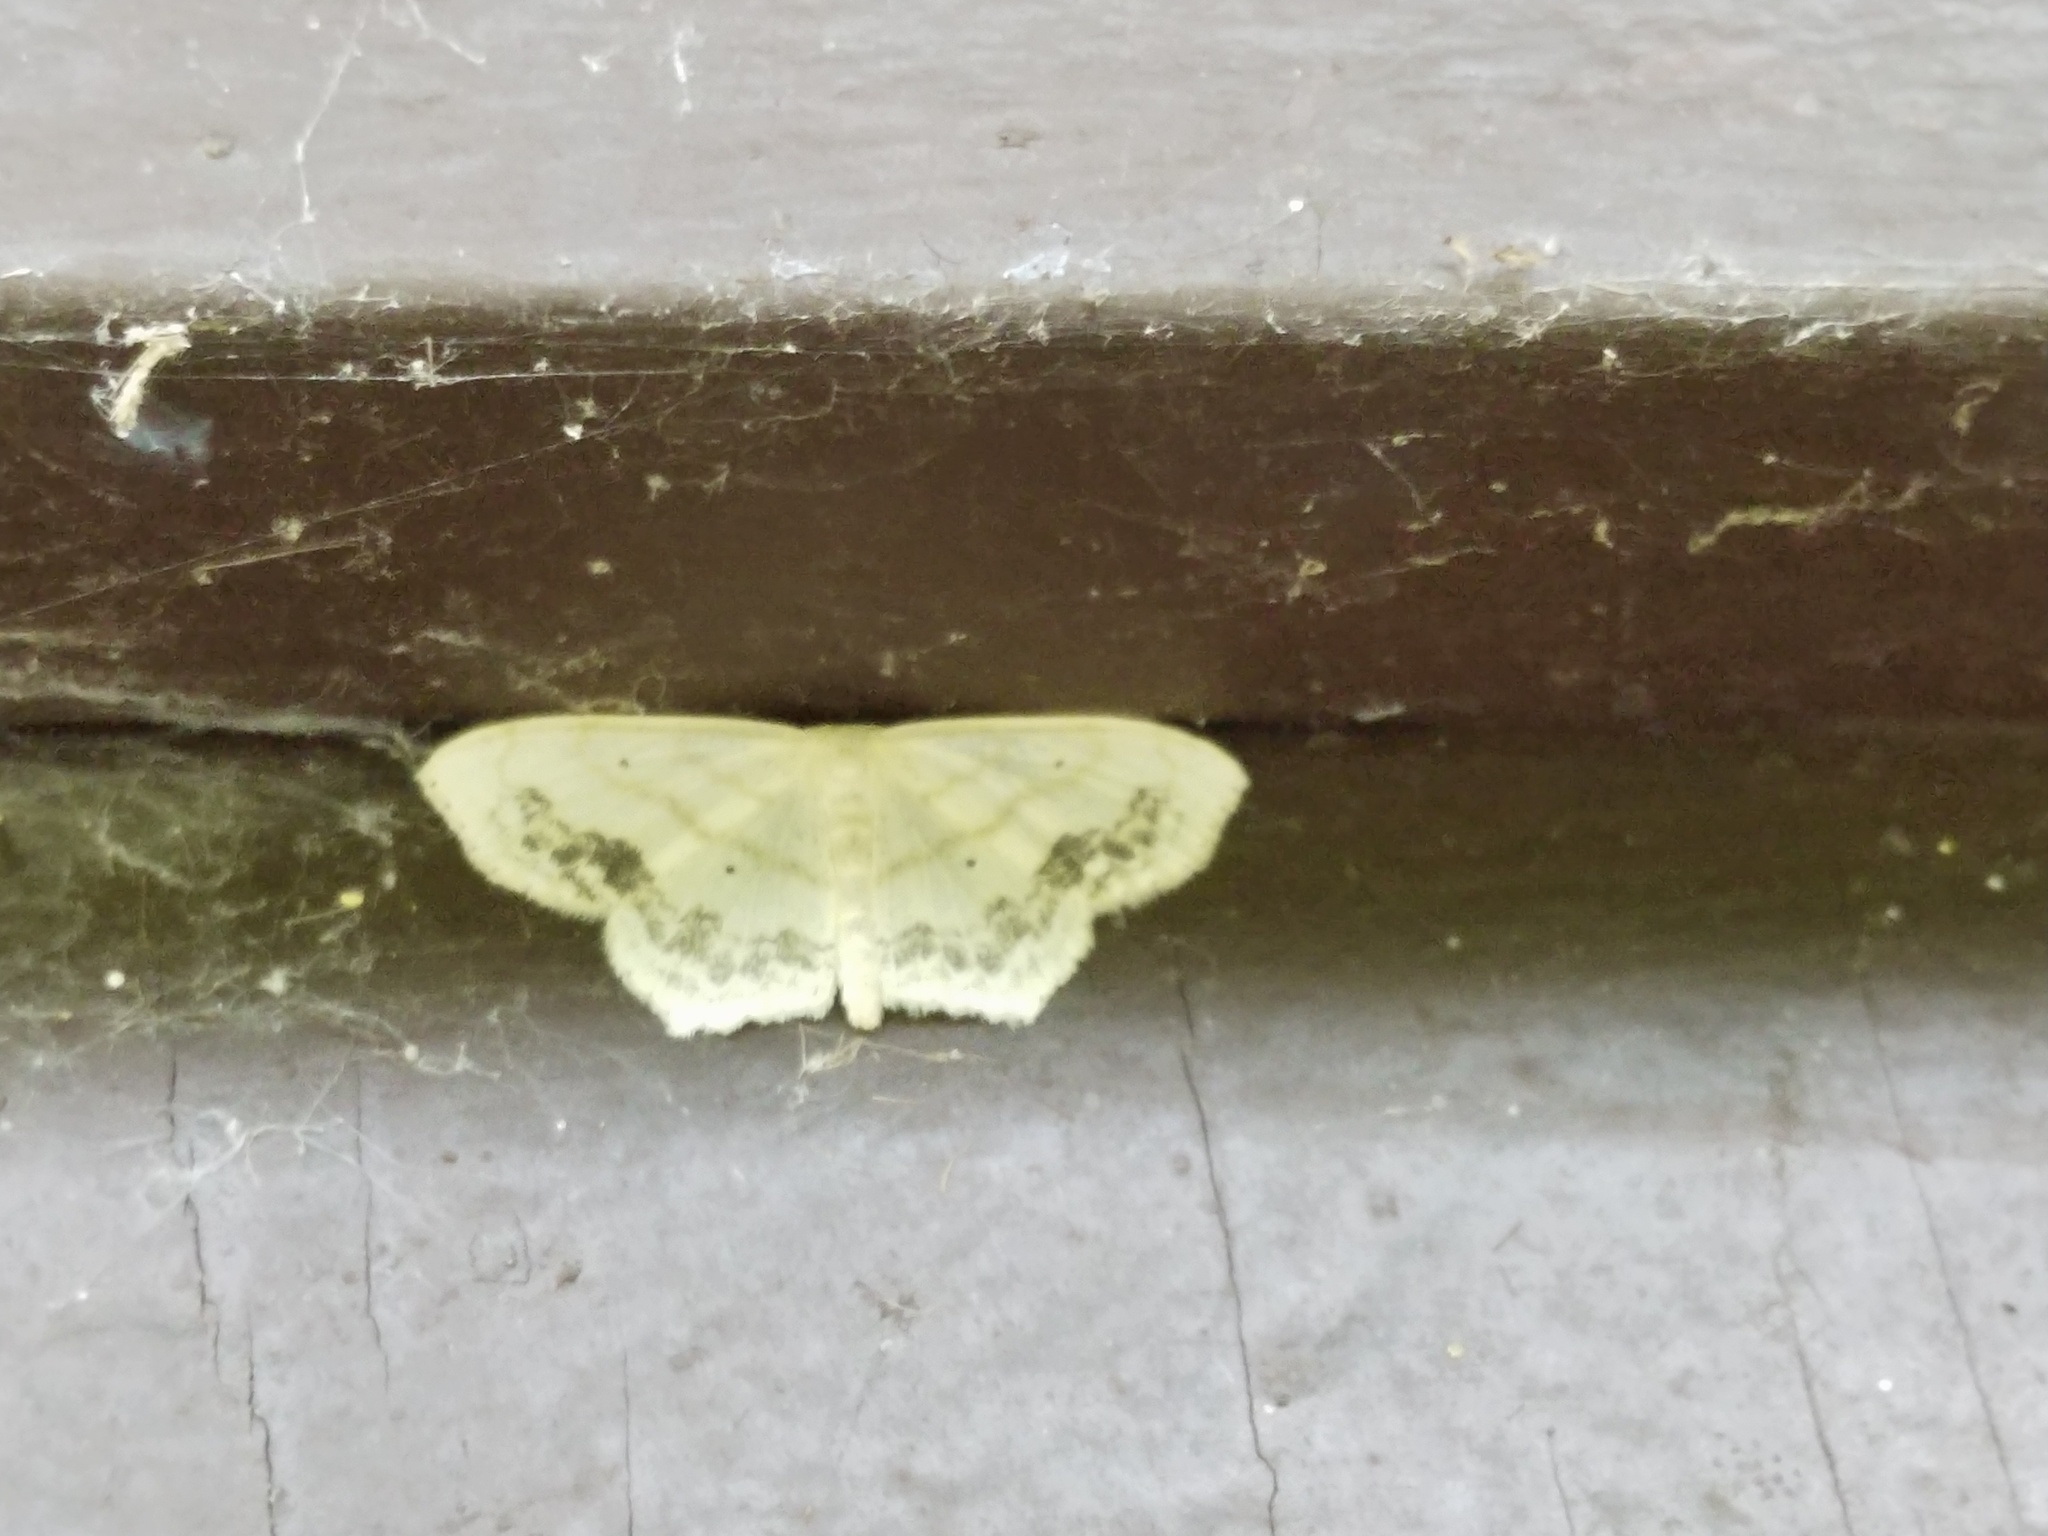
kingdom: Animalia
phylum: Arthropoda
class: Insecta
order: Lepidoptera
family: Geometridae
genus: Scopula
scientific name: Scopula limboundata
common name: Large lace border
